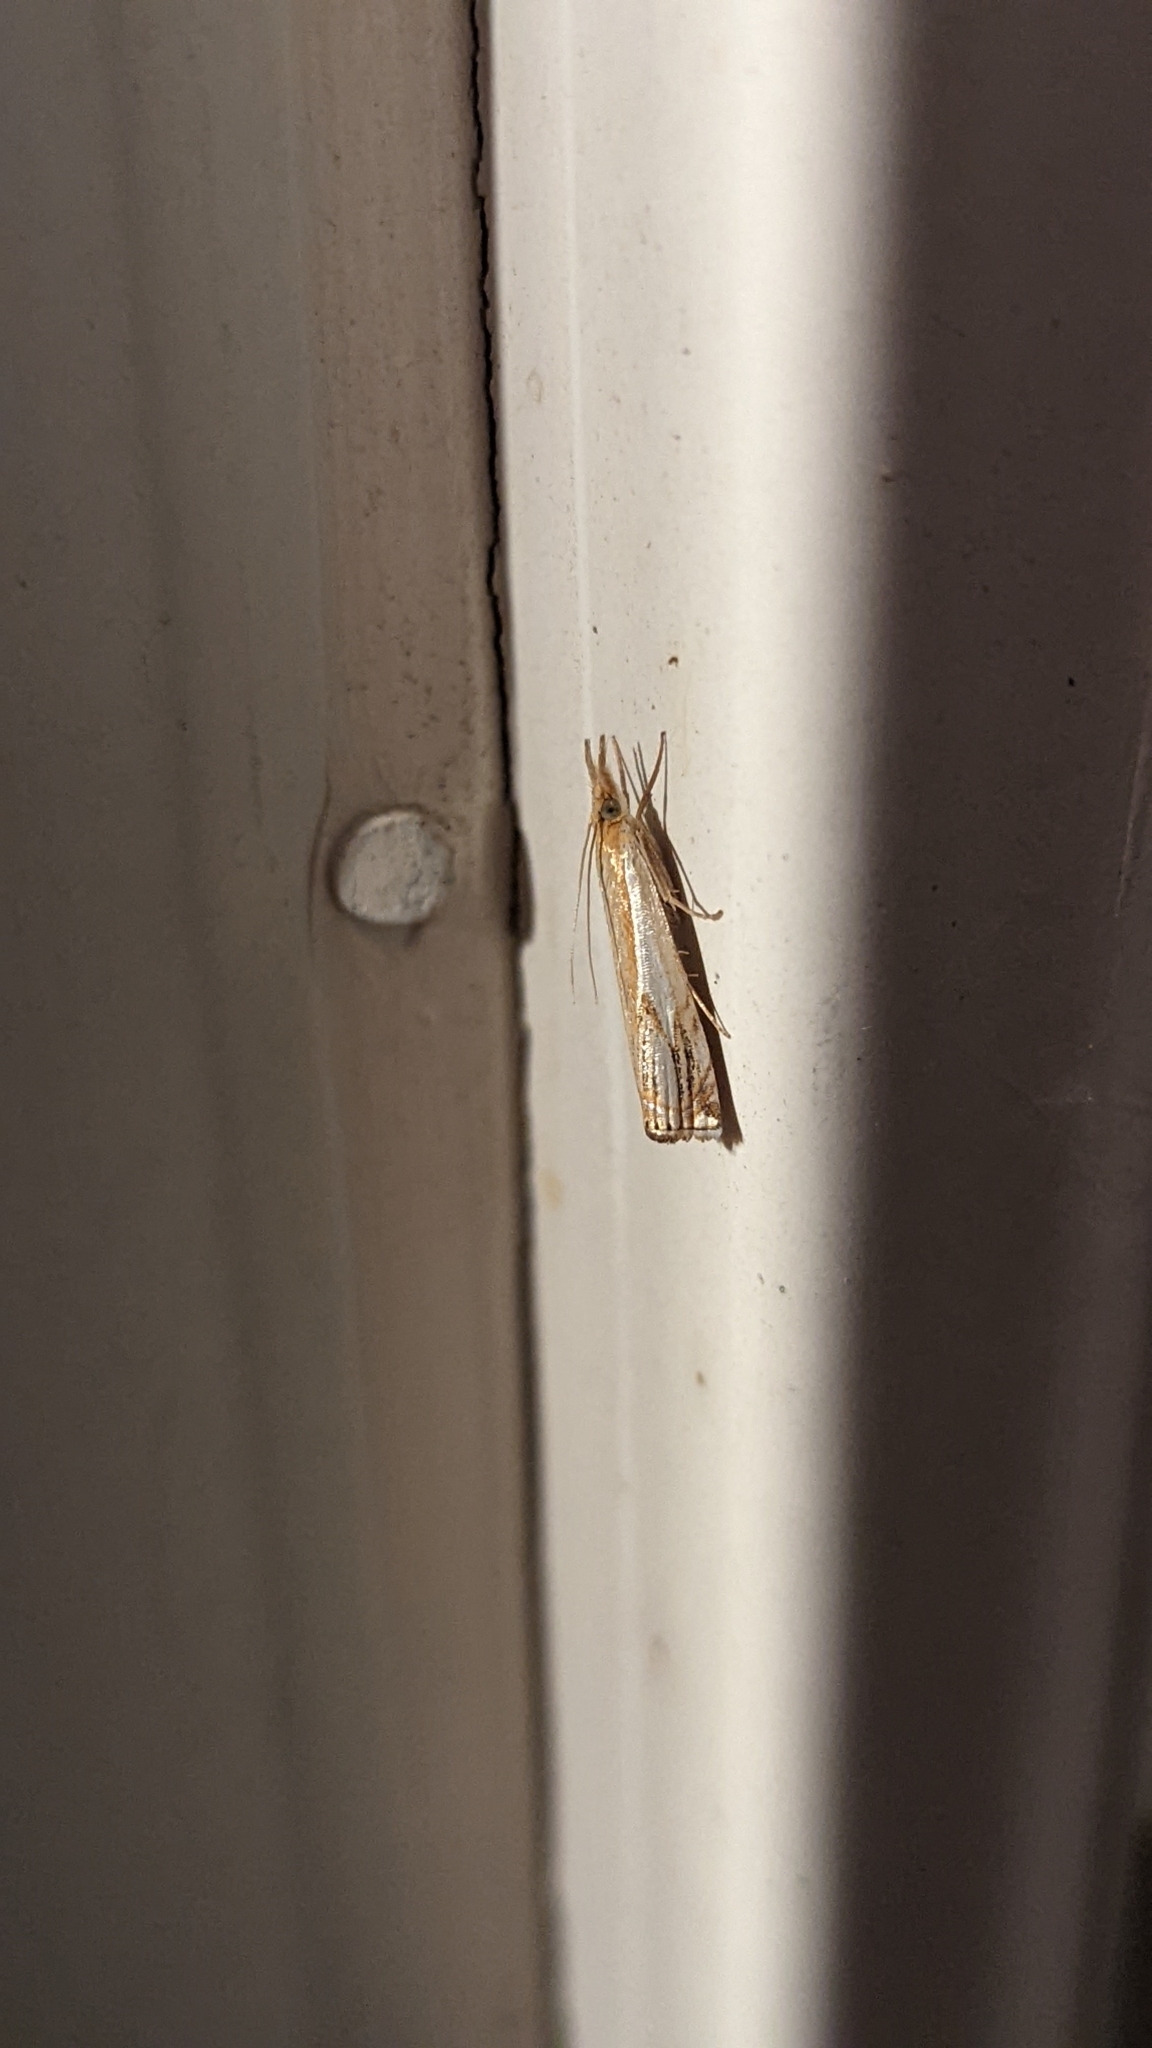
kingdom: Animalia
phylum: Arthropoda
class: Insecta
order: Lepidoptera
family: Crambidae
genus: Crambus
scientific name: Crambus agitatellus
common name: Double-banded grass-veneer
